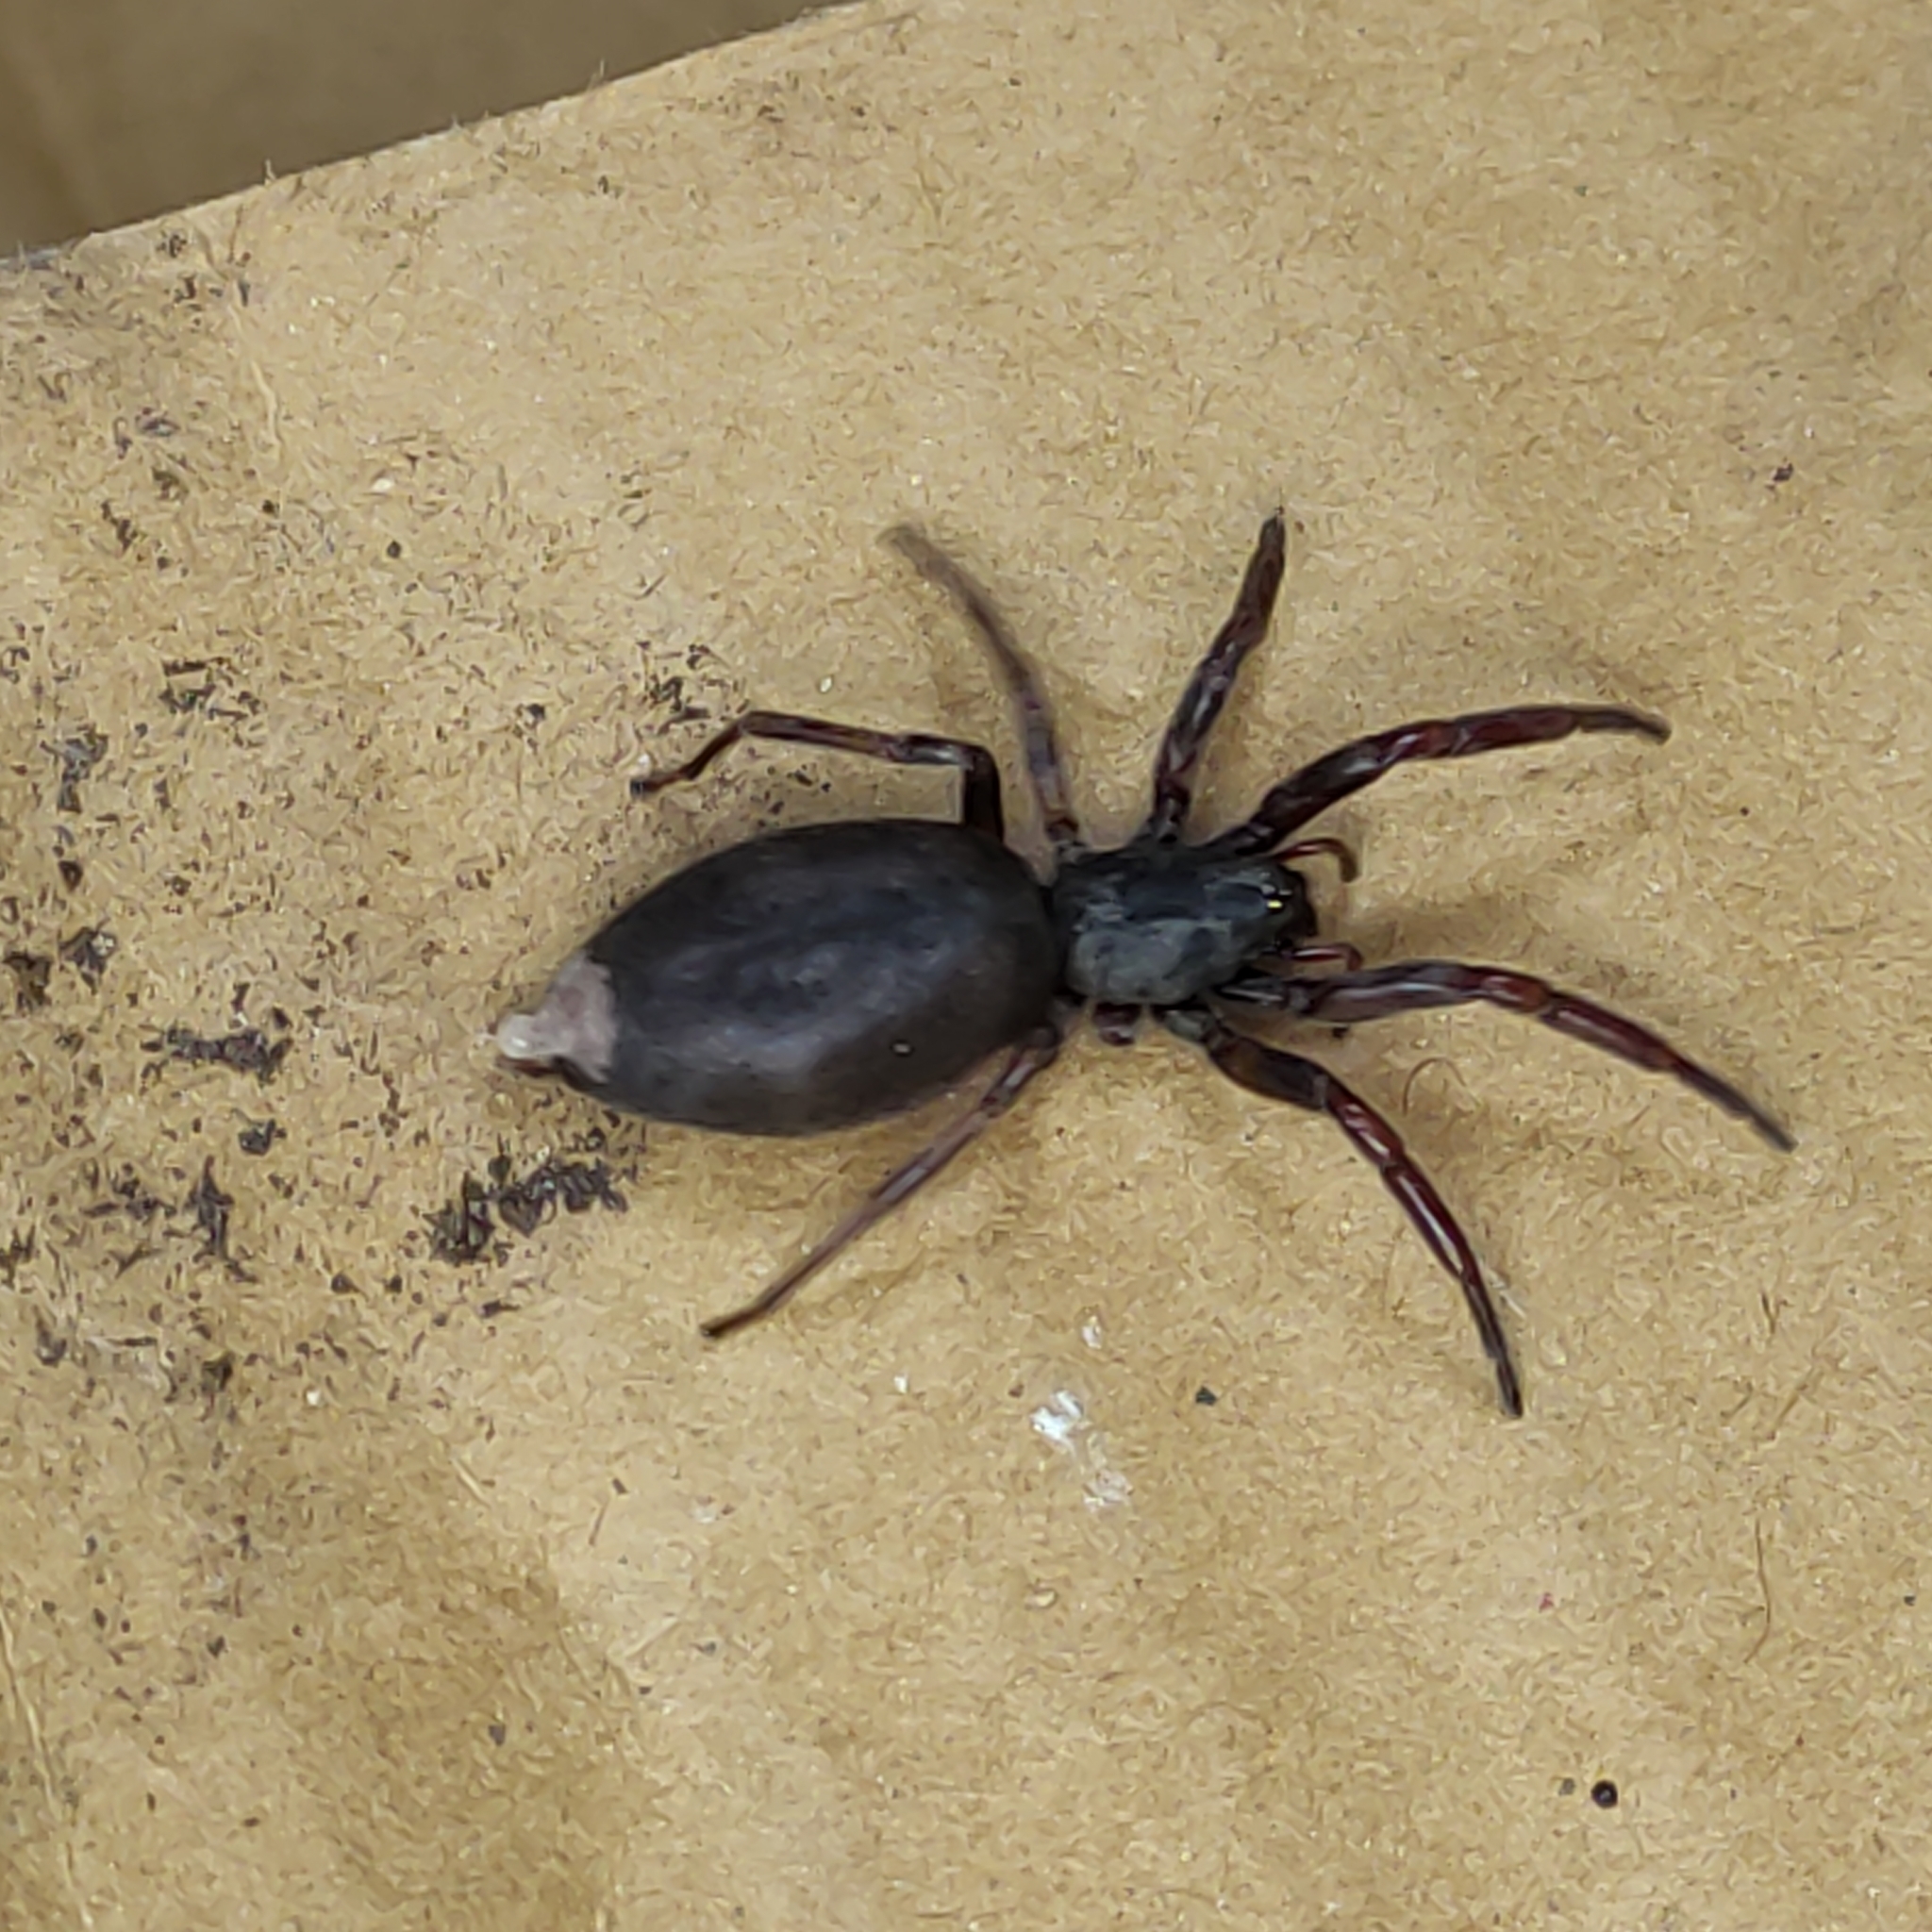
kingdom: Animalia
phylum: Arthropoda
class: Arachnida
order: Araneae
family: Lamponidae
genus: Lampona
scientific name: Lampona cylindrata
